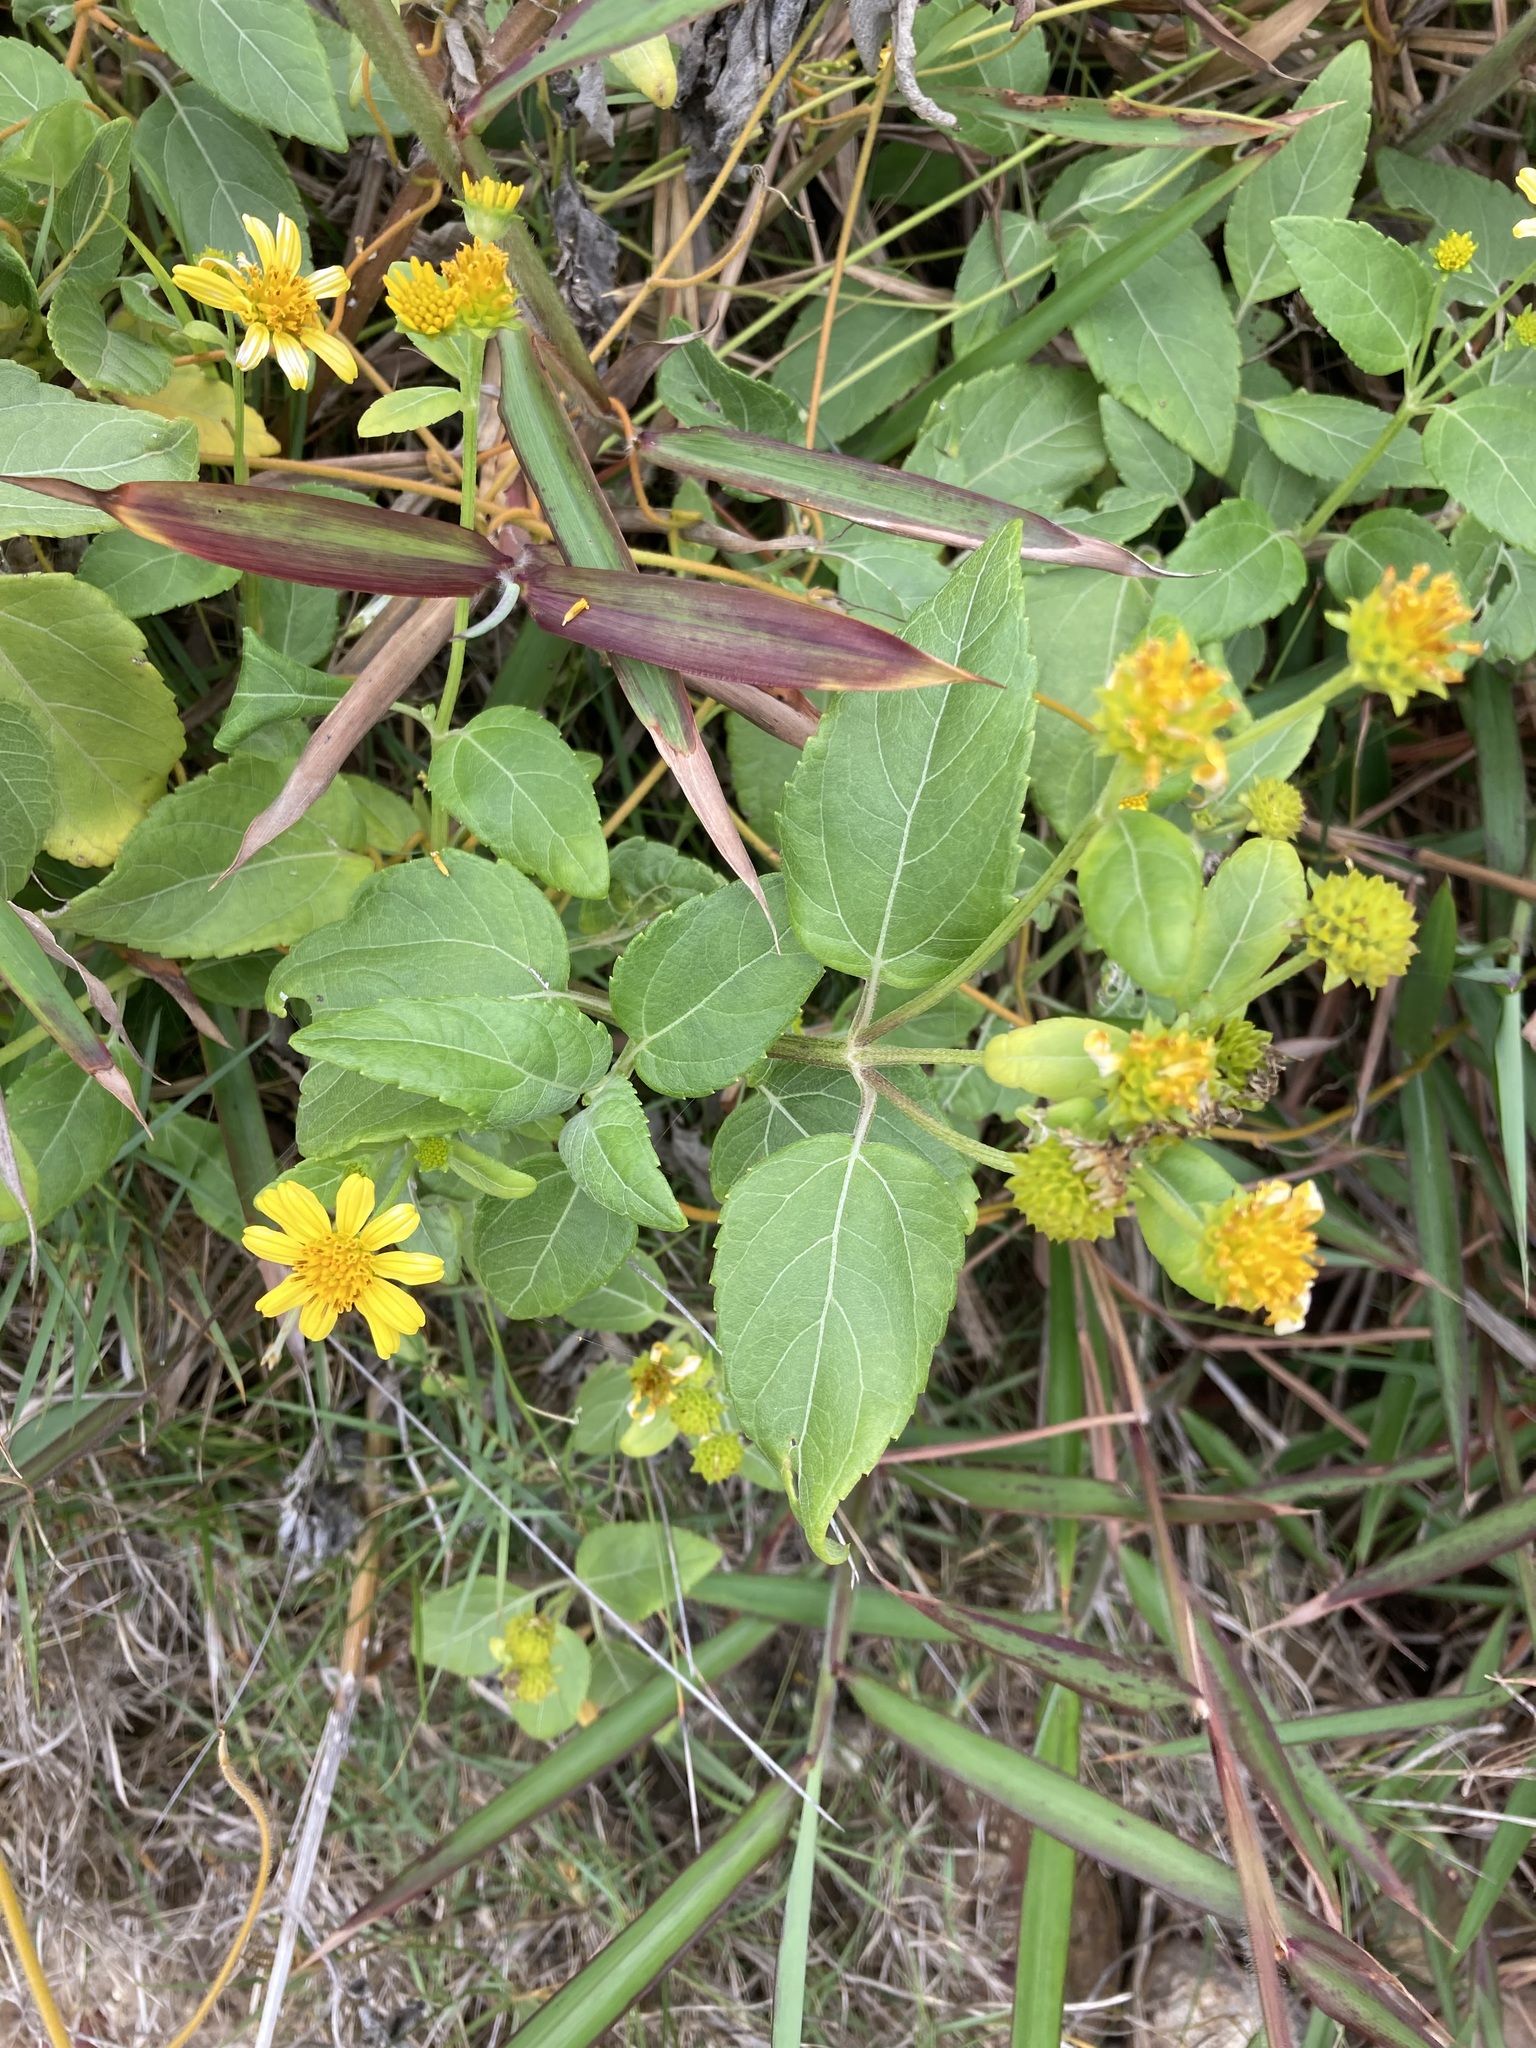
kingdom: Plantae
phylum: Tracheophyta
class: Magnoliopsida
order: Asterales
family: Asteraceae
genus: Wollastonia
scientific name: Wollastonia uniflora
